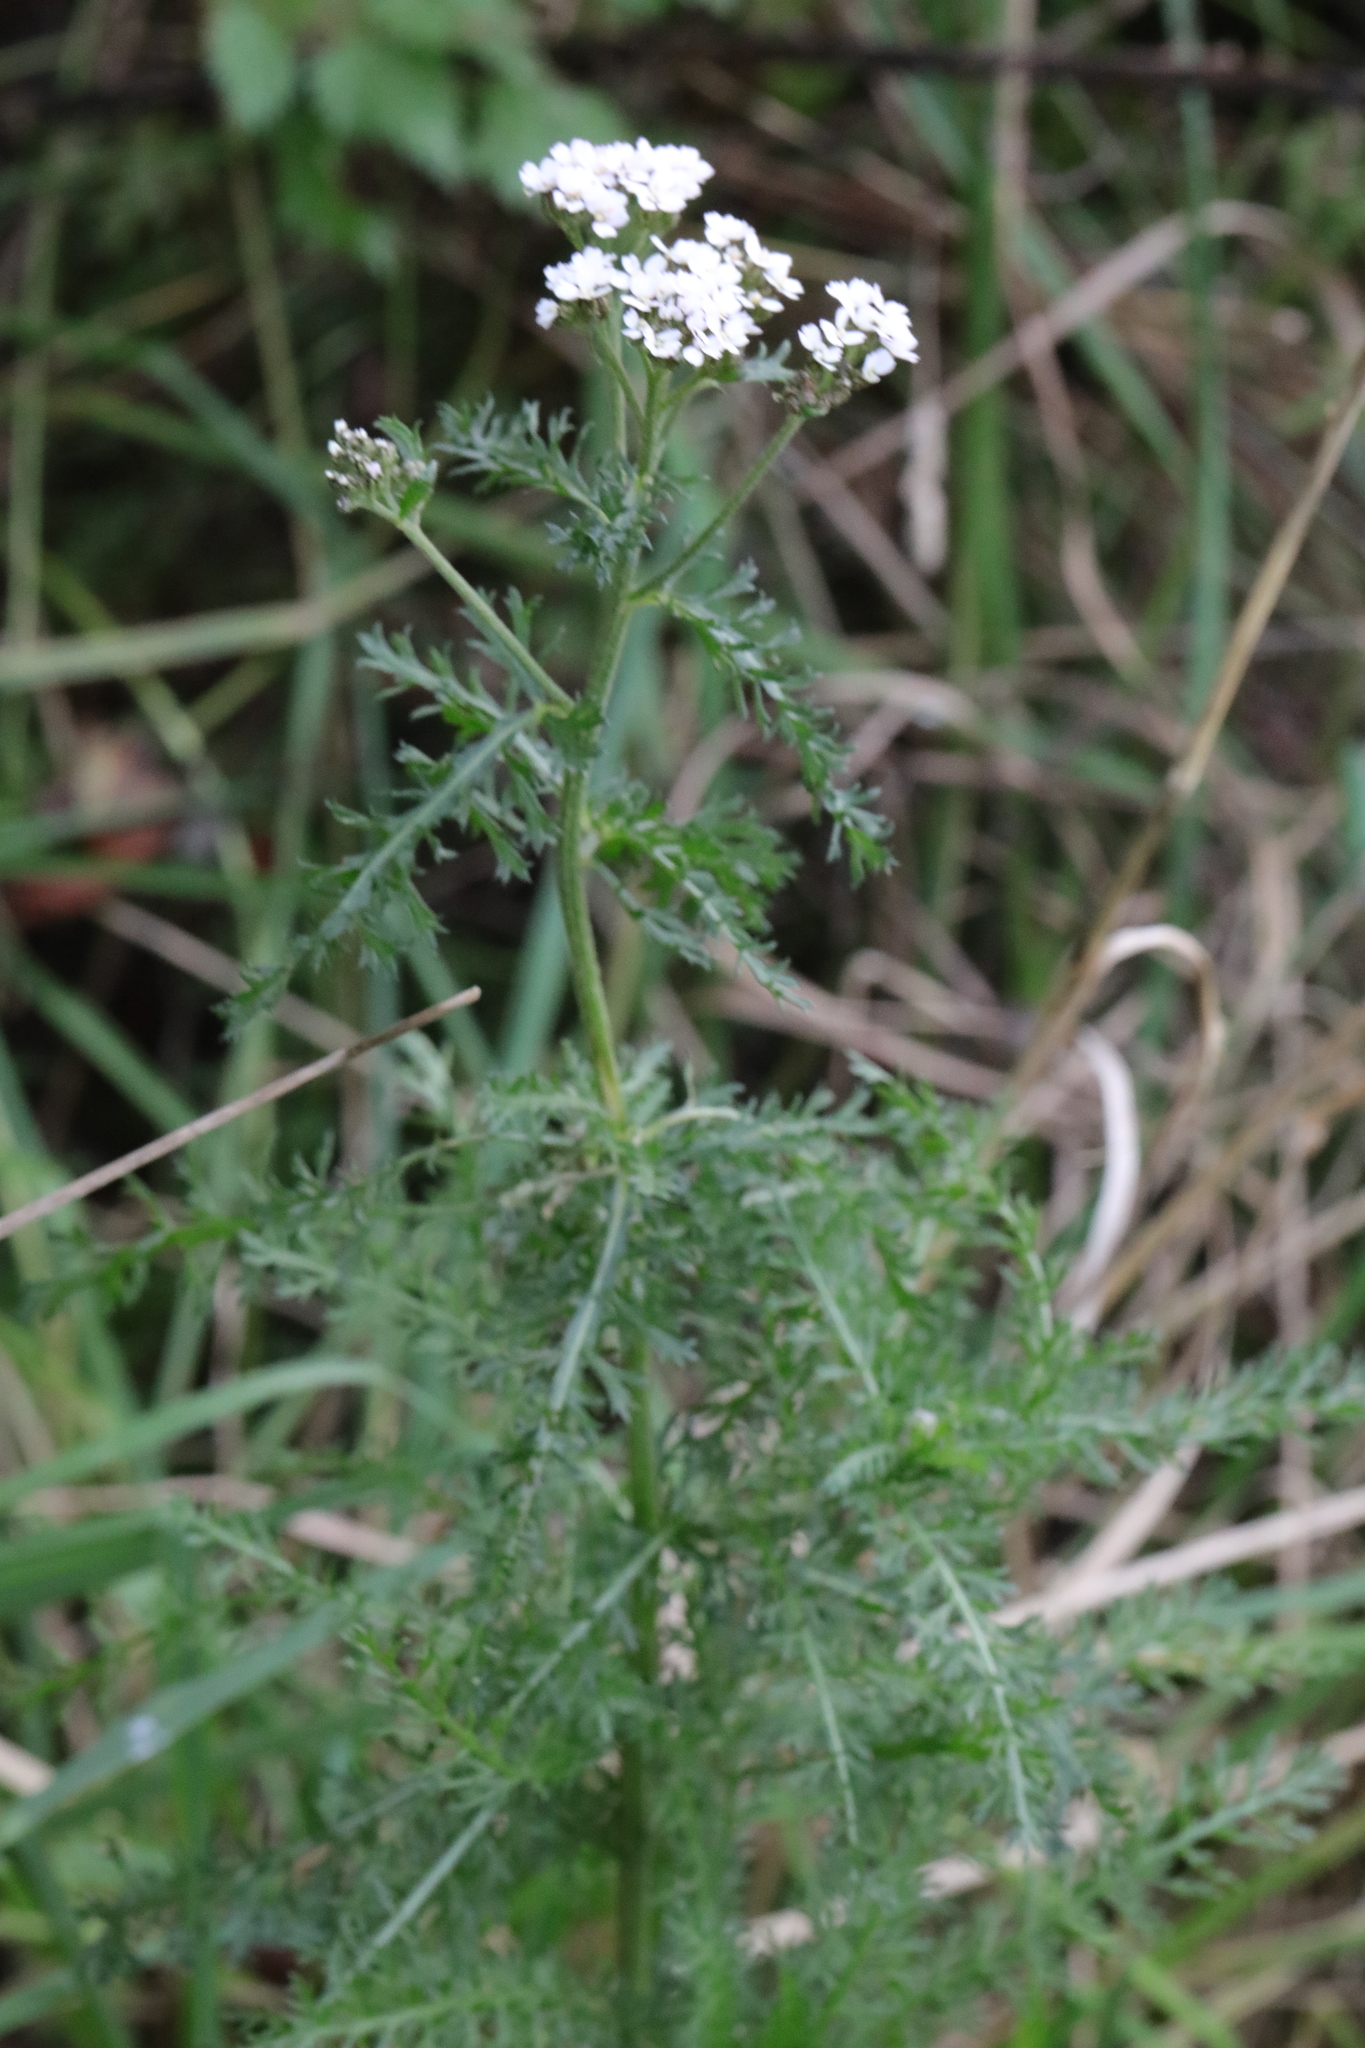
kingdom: Plantae
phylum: Tracheophyta
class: Magnoliopsida
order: Asterales
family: Asteraceae
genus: Achillea
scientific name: Achillea millefolium
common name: Yarrow
